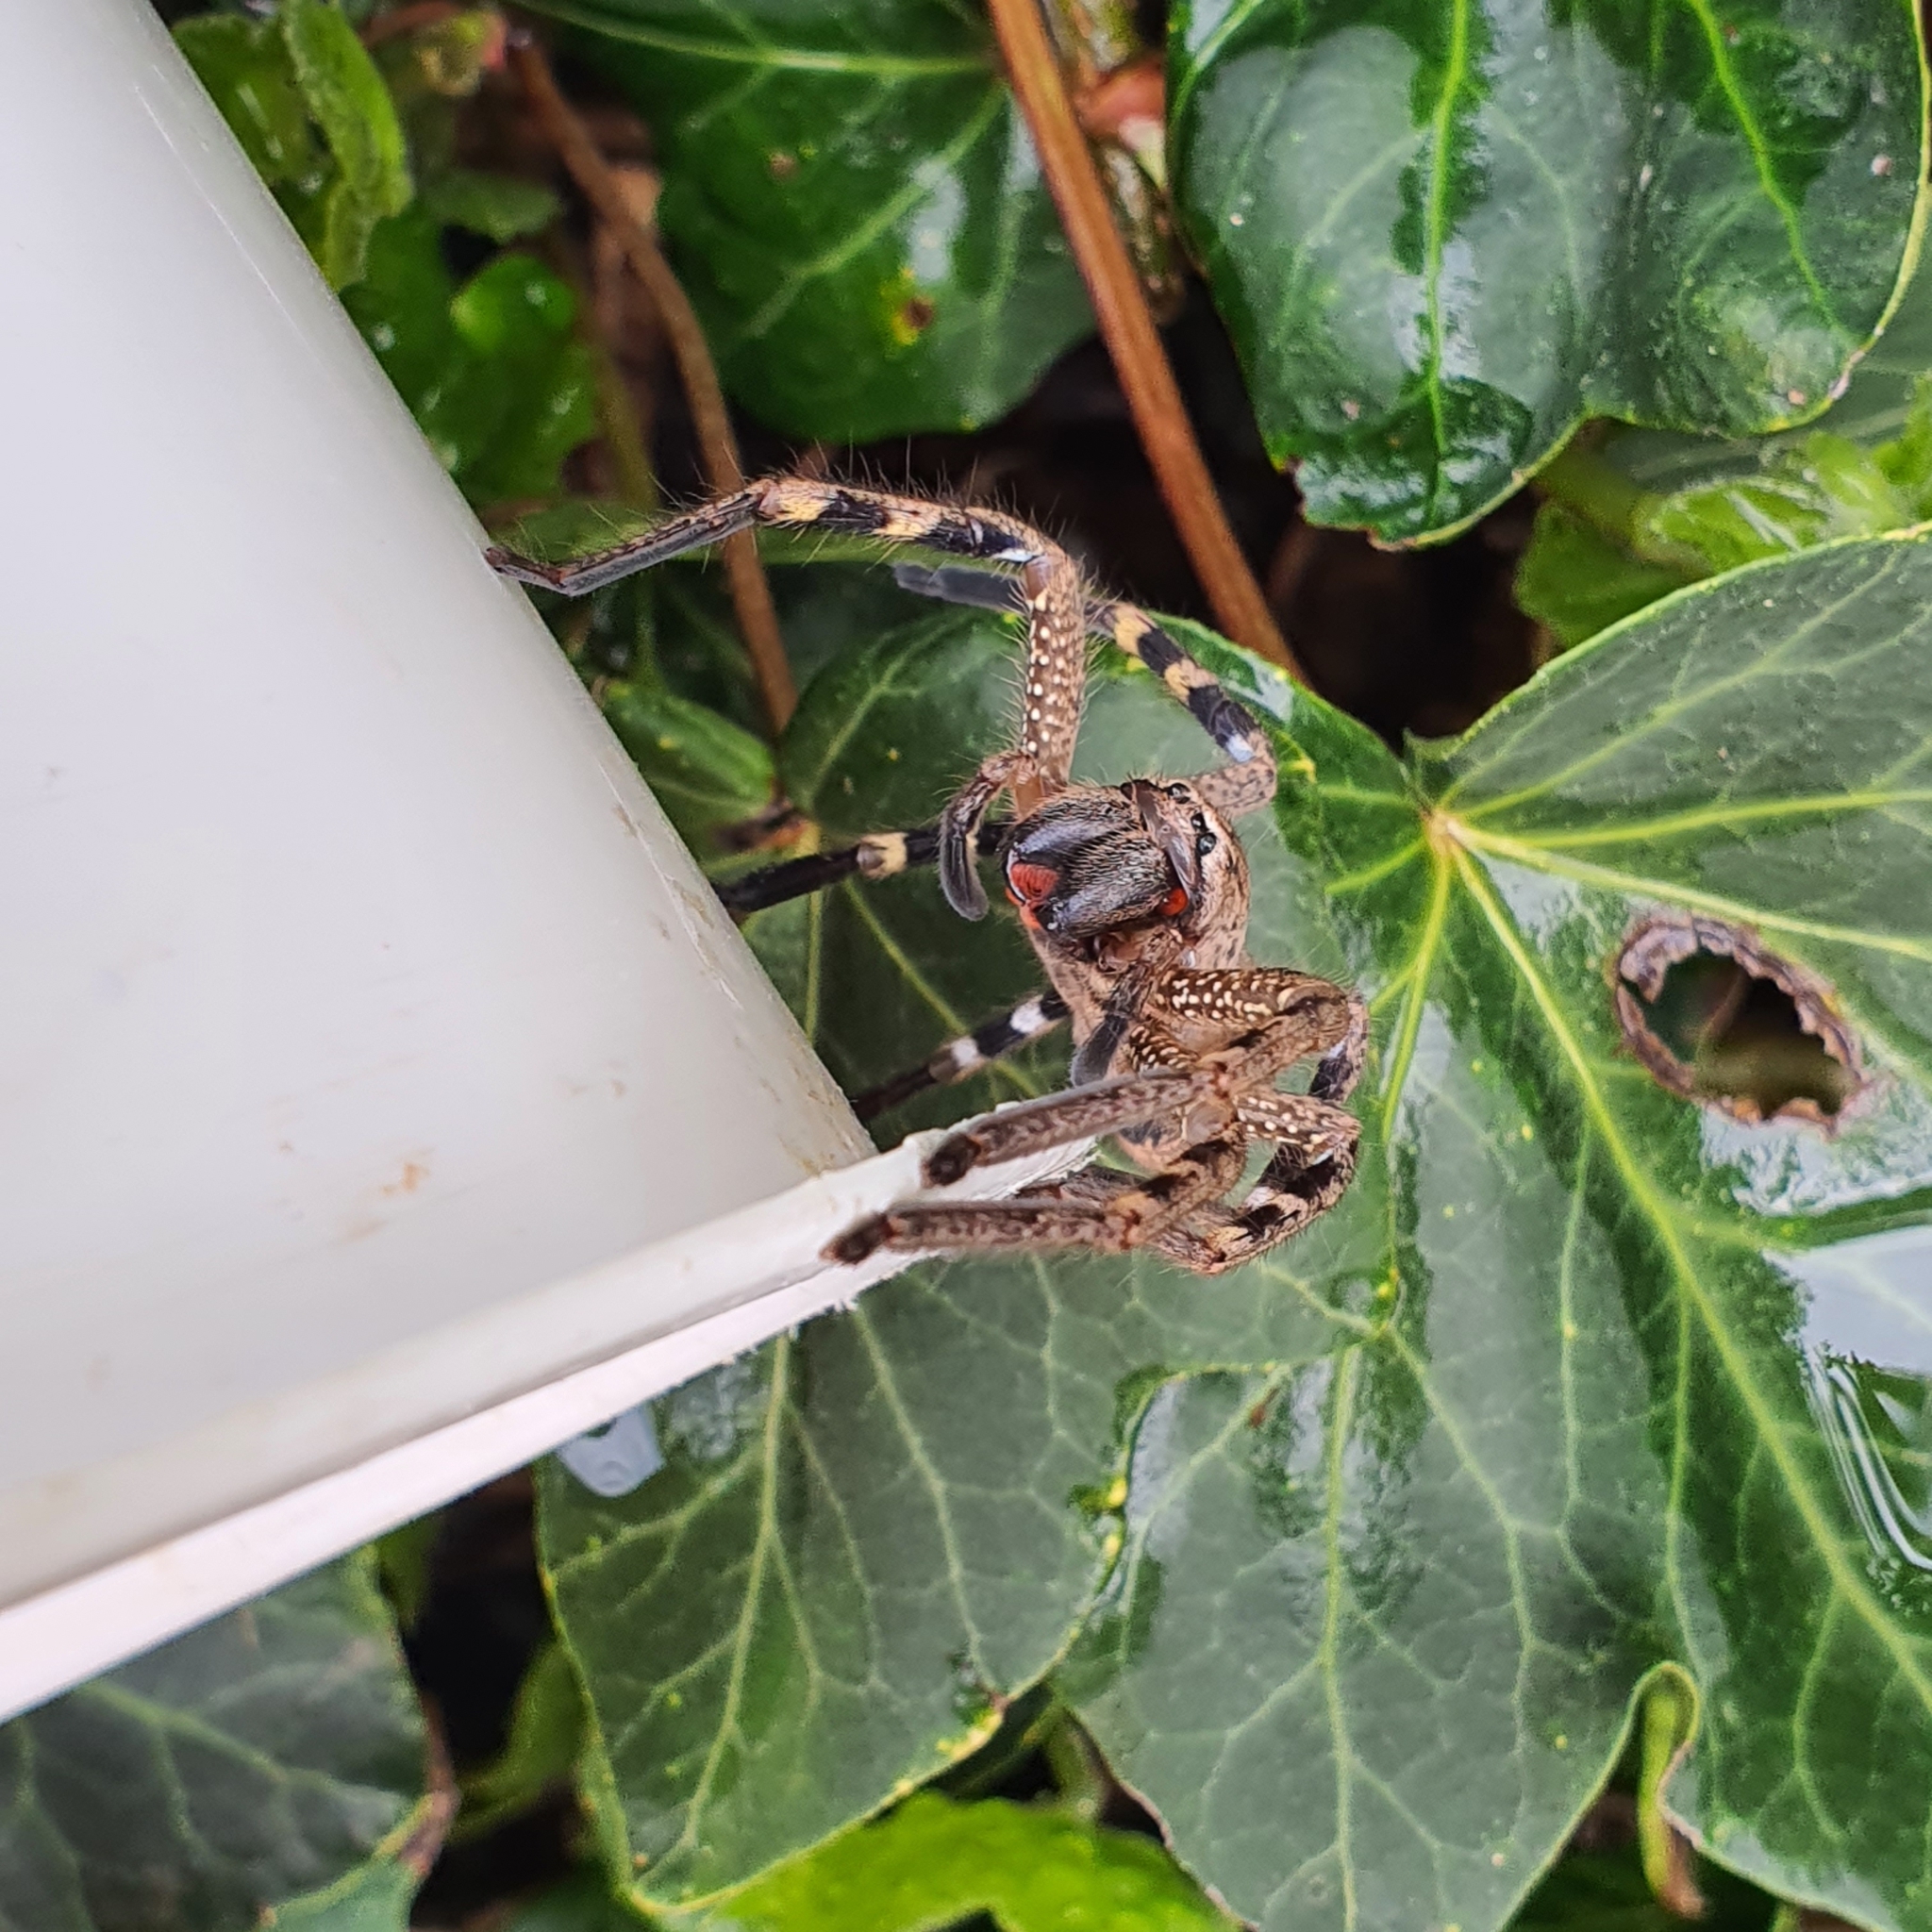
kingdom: Animalia
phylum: Arthropoda
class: Arachnida
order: Araneae
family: Sparassidae
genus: Neosparassus
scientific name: Neosparassus calligaster
